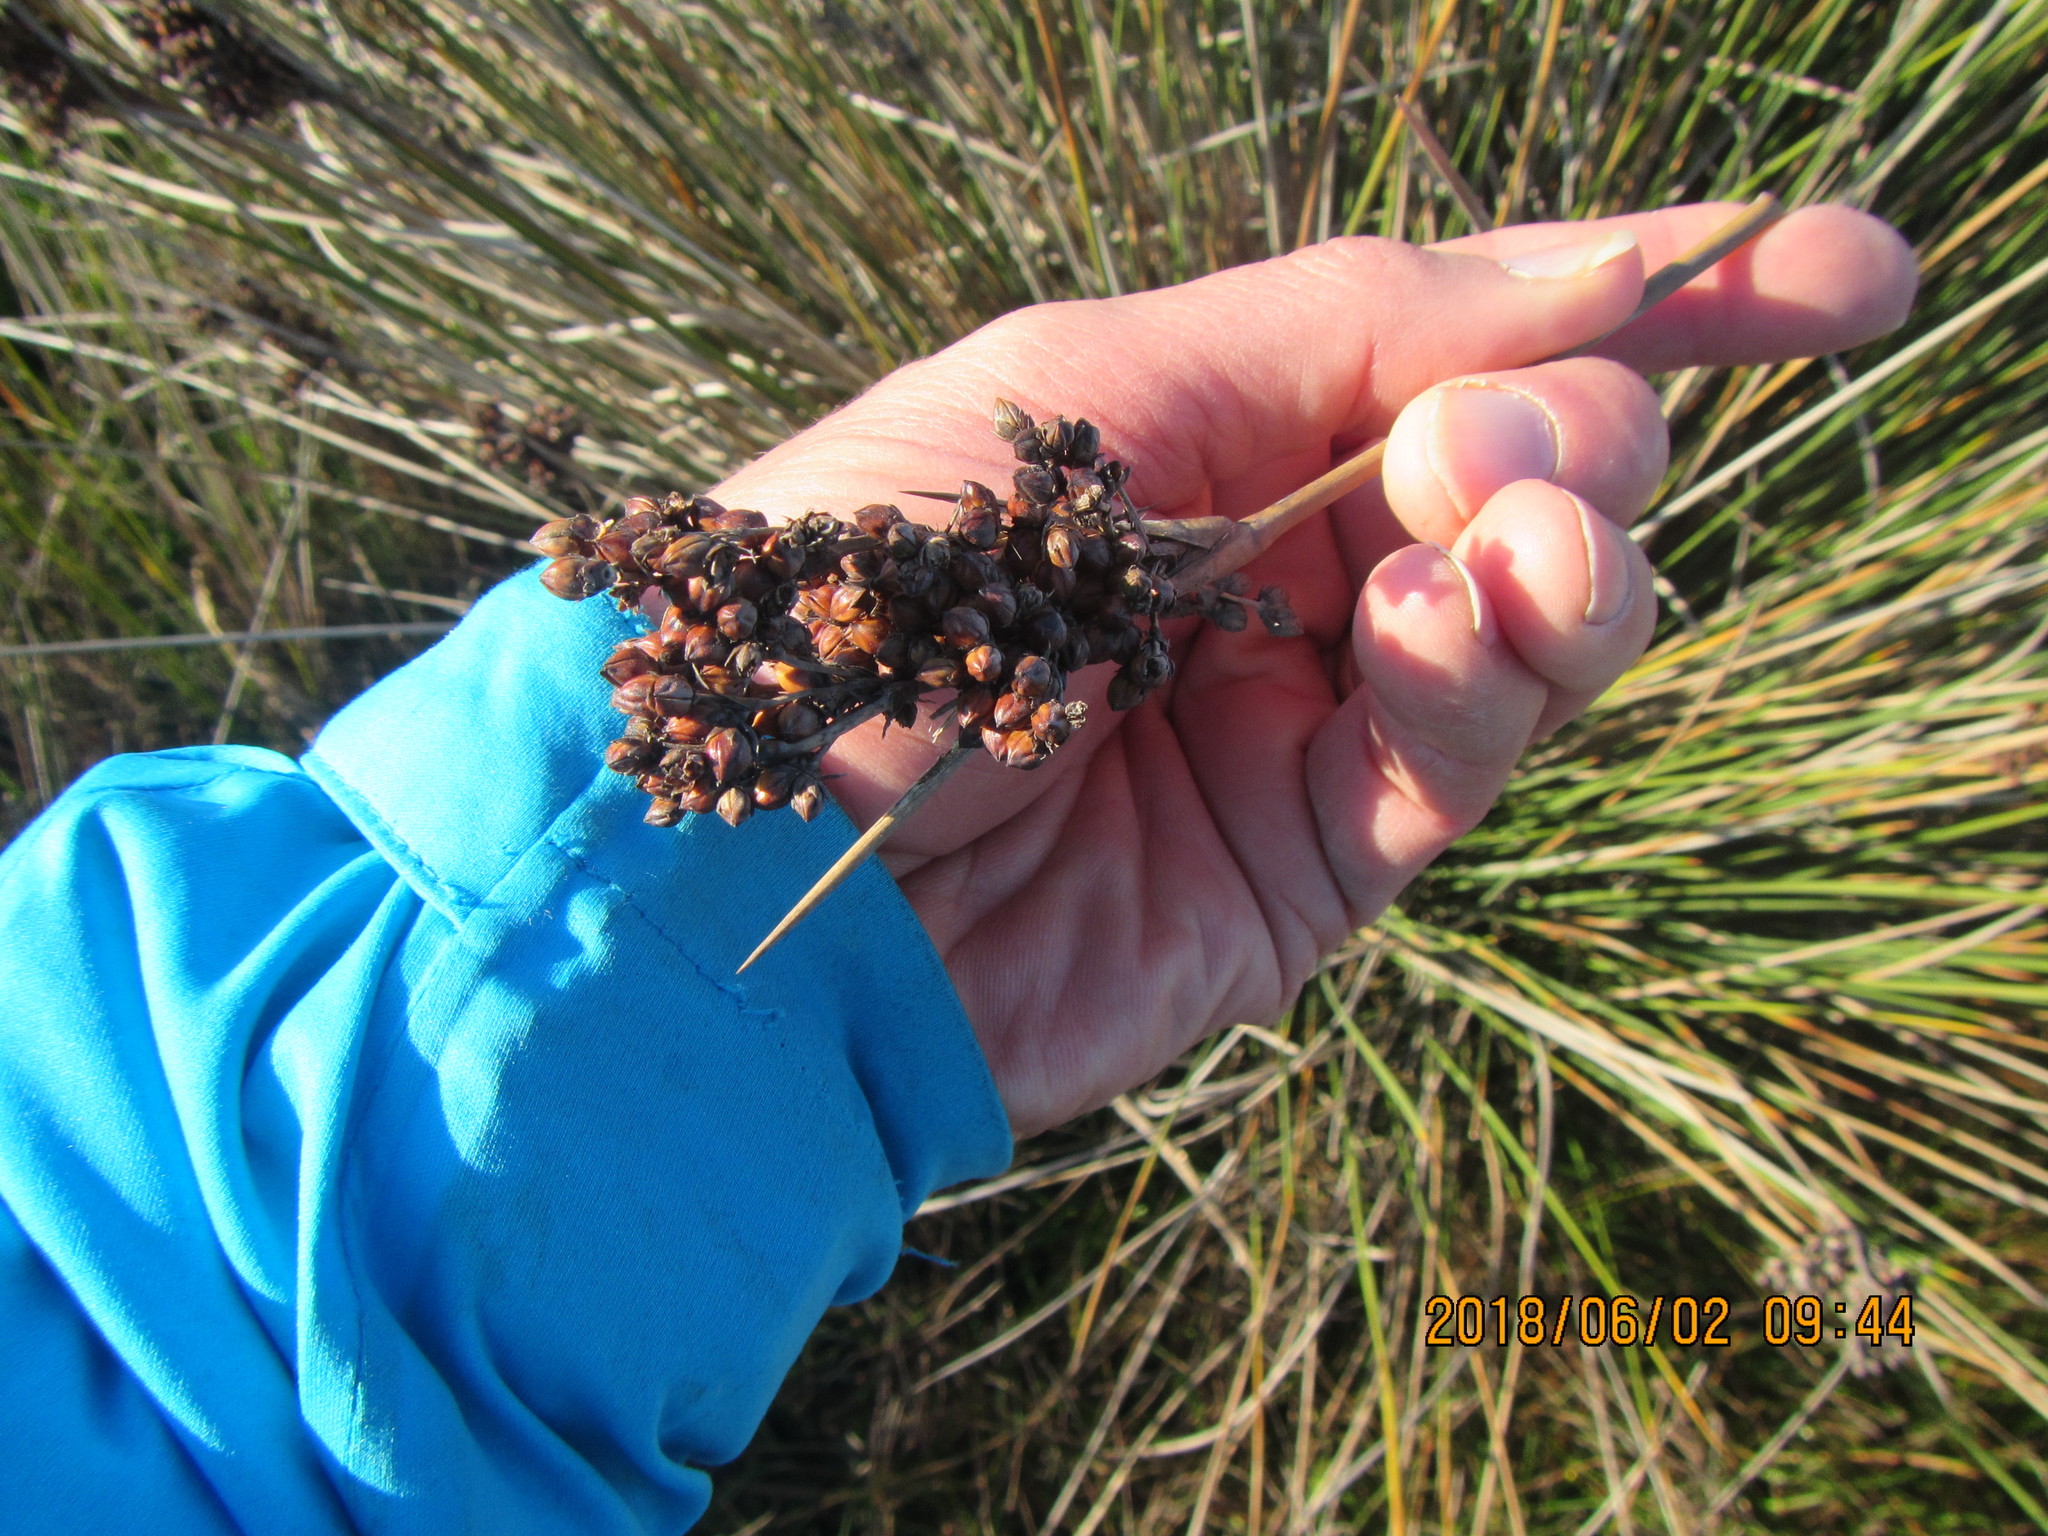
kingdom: Plantae
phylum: Tracheophyta
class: Liliopsida
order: Poales
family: Juncaceae
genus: Juncus
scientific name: Juncus acutus
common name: Sharp rush
